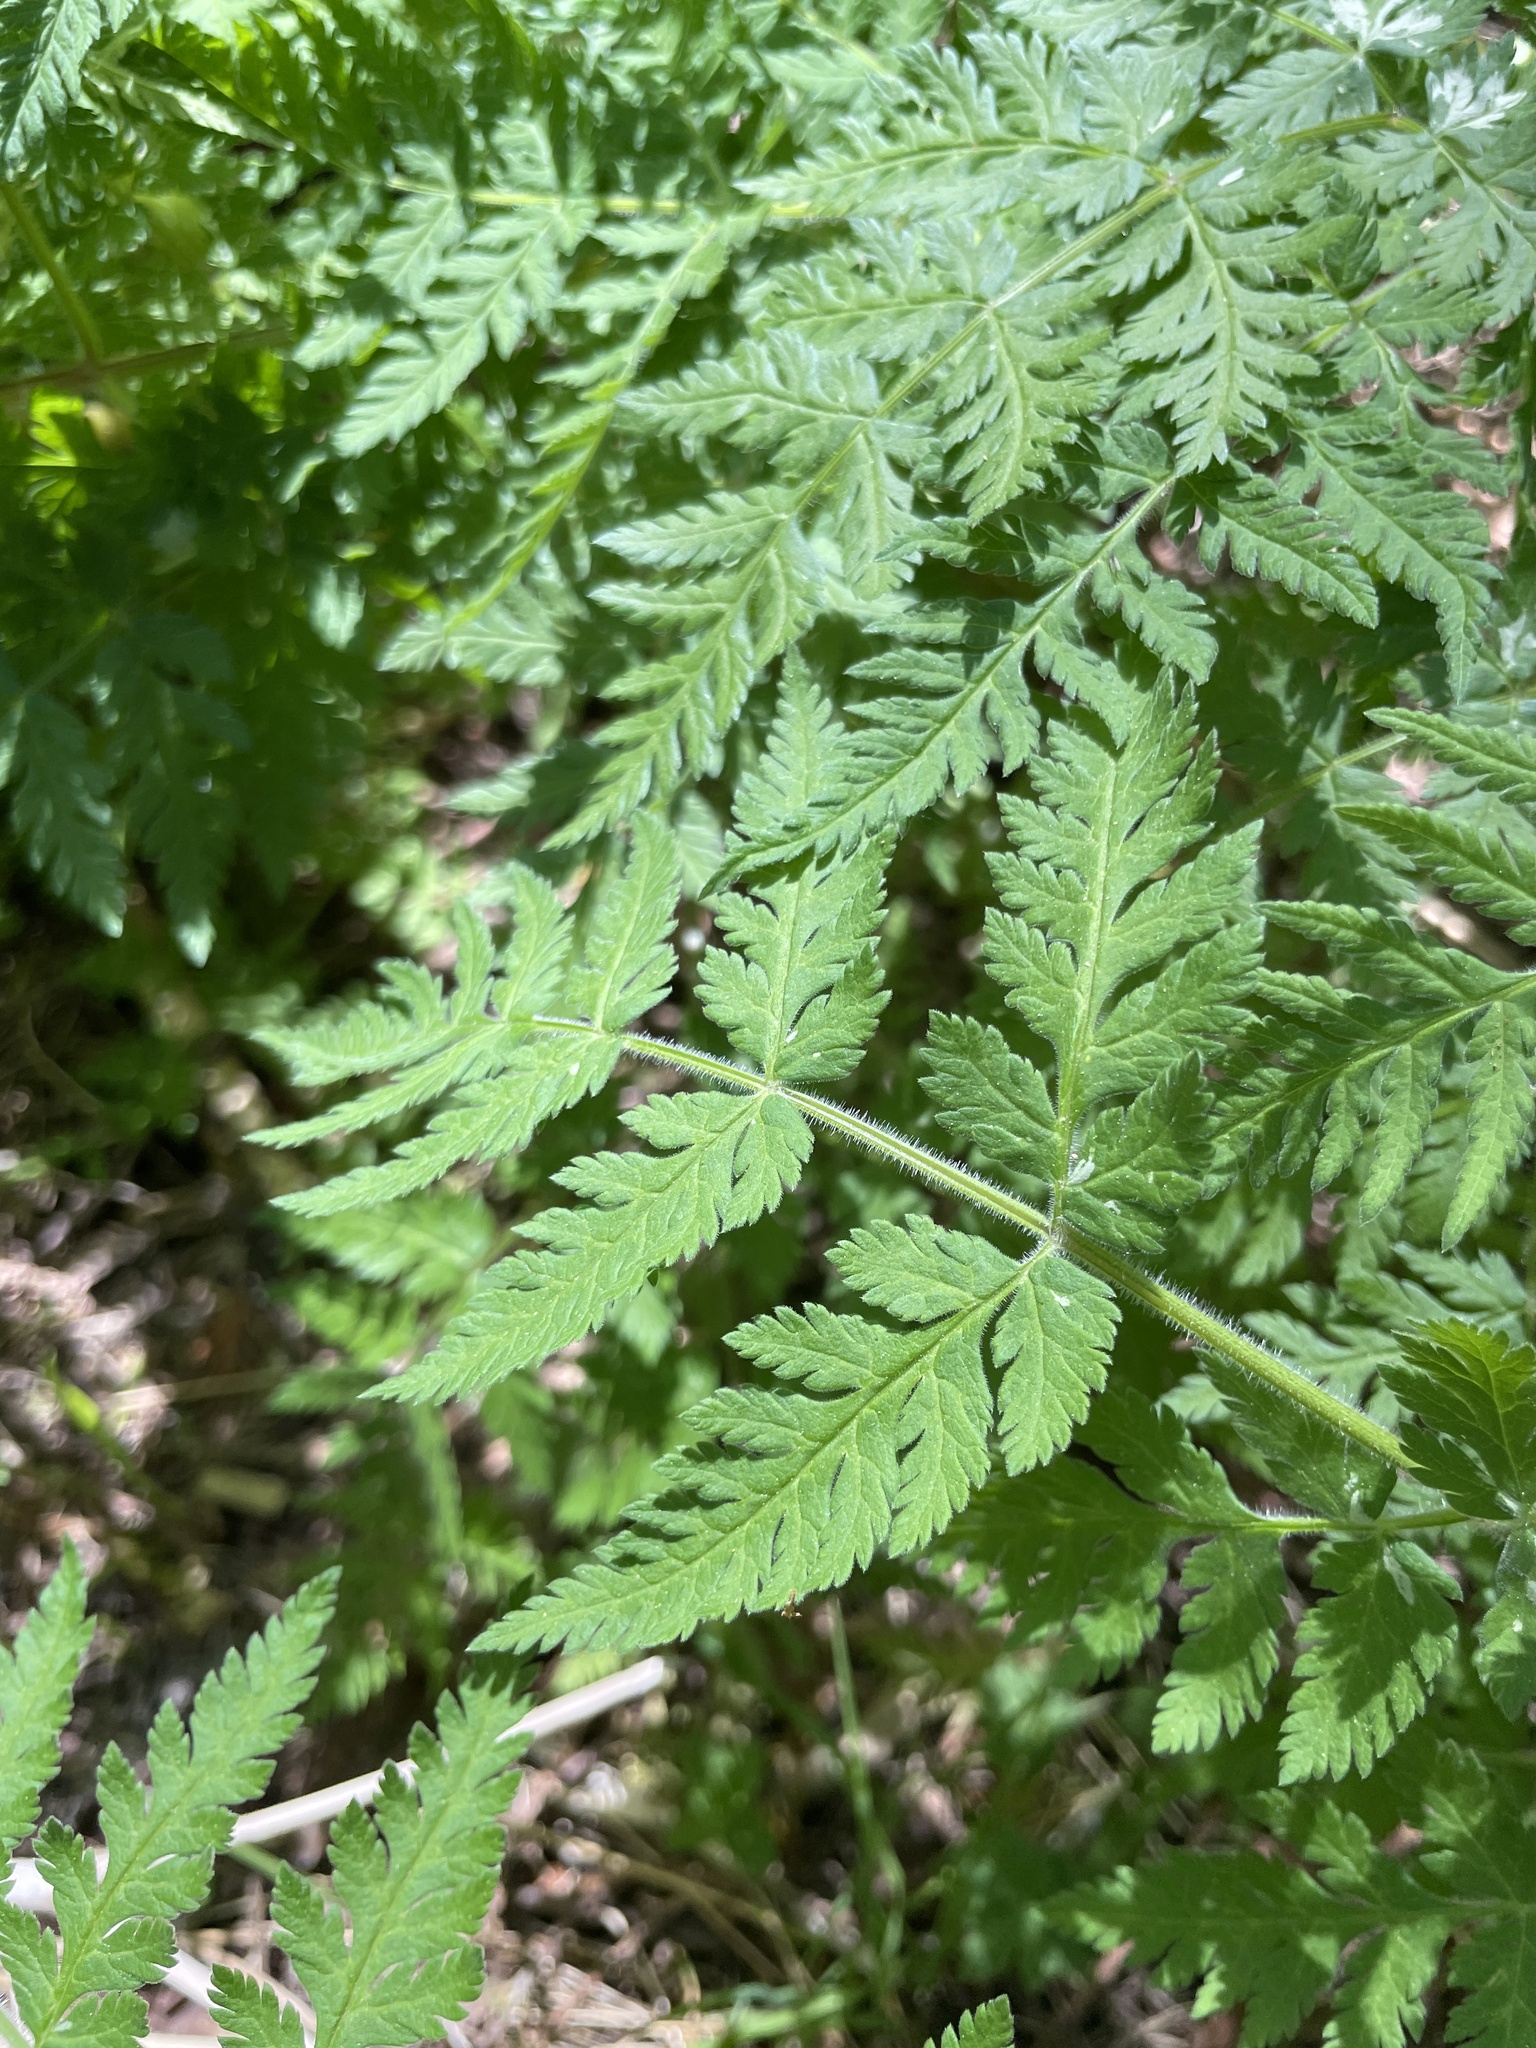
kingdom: Plantae
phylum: Tracheophyta
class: Magnoliopsida
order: Apiales
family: Apiaceae
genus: Myrrhis
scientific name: Myrrhis odorata
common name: Sweet cicely
